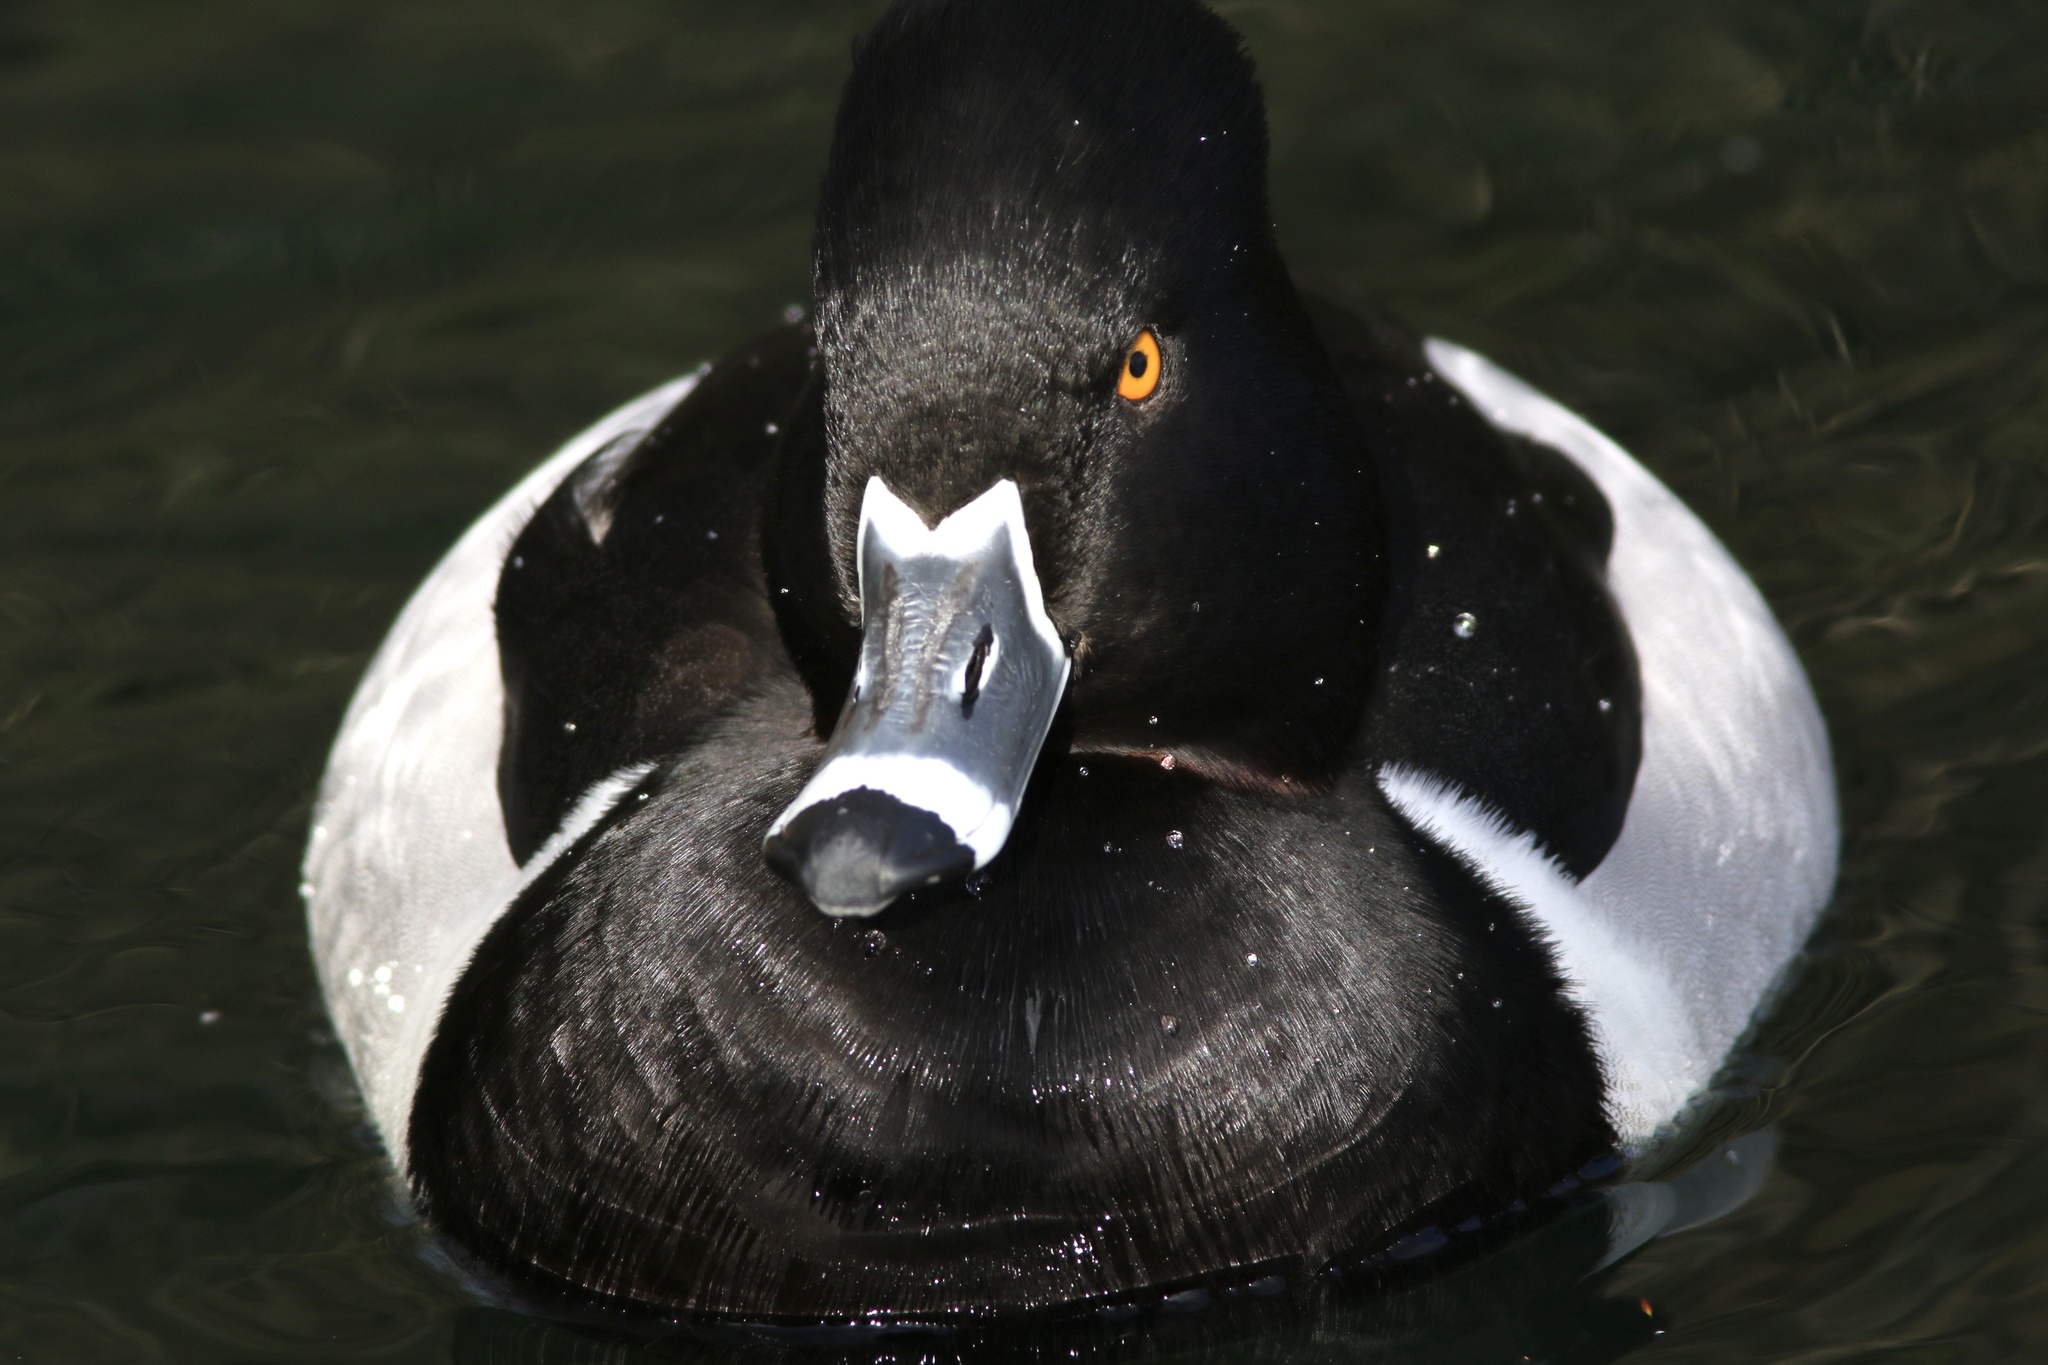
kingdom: Animalia
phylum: Chordata
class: Aves
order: Anseriformes
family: Anatidae
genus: Aythya
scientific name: Aythya collaris
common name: Ring-necked duck
